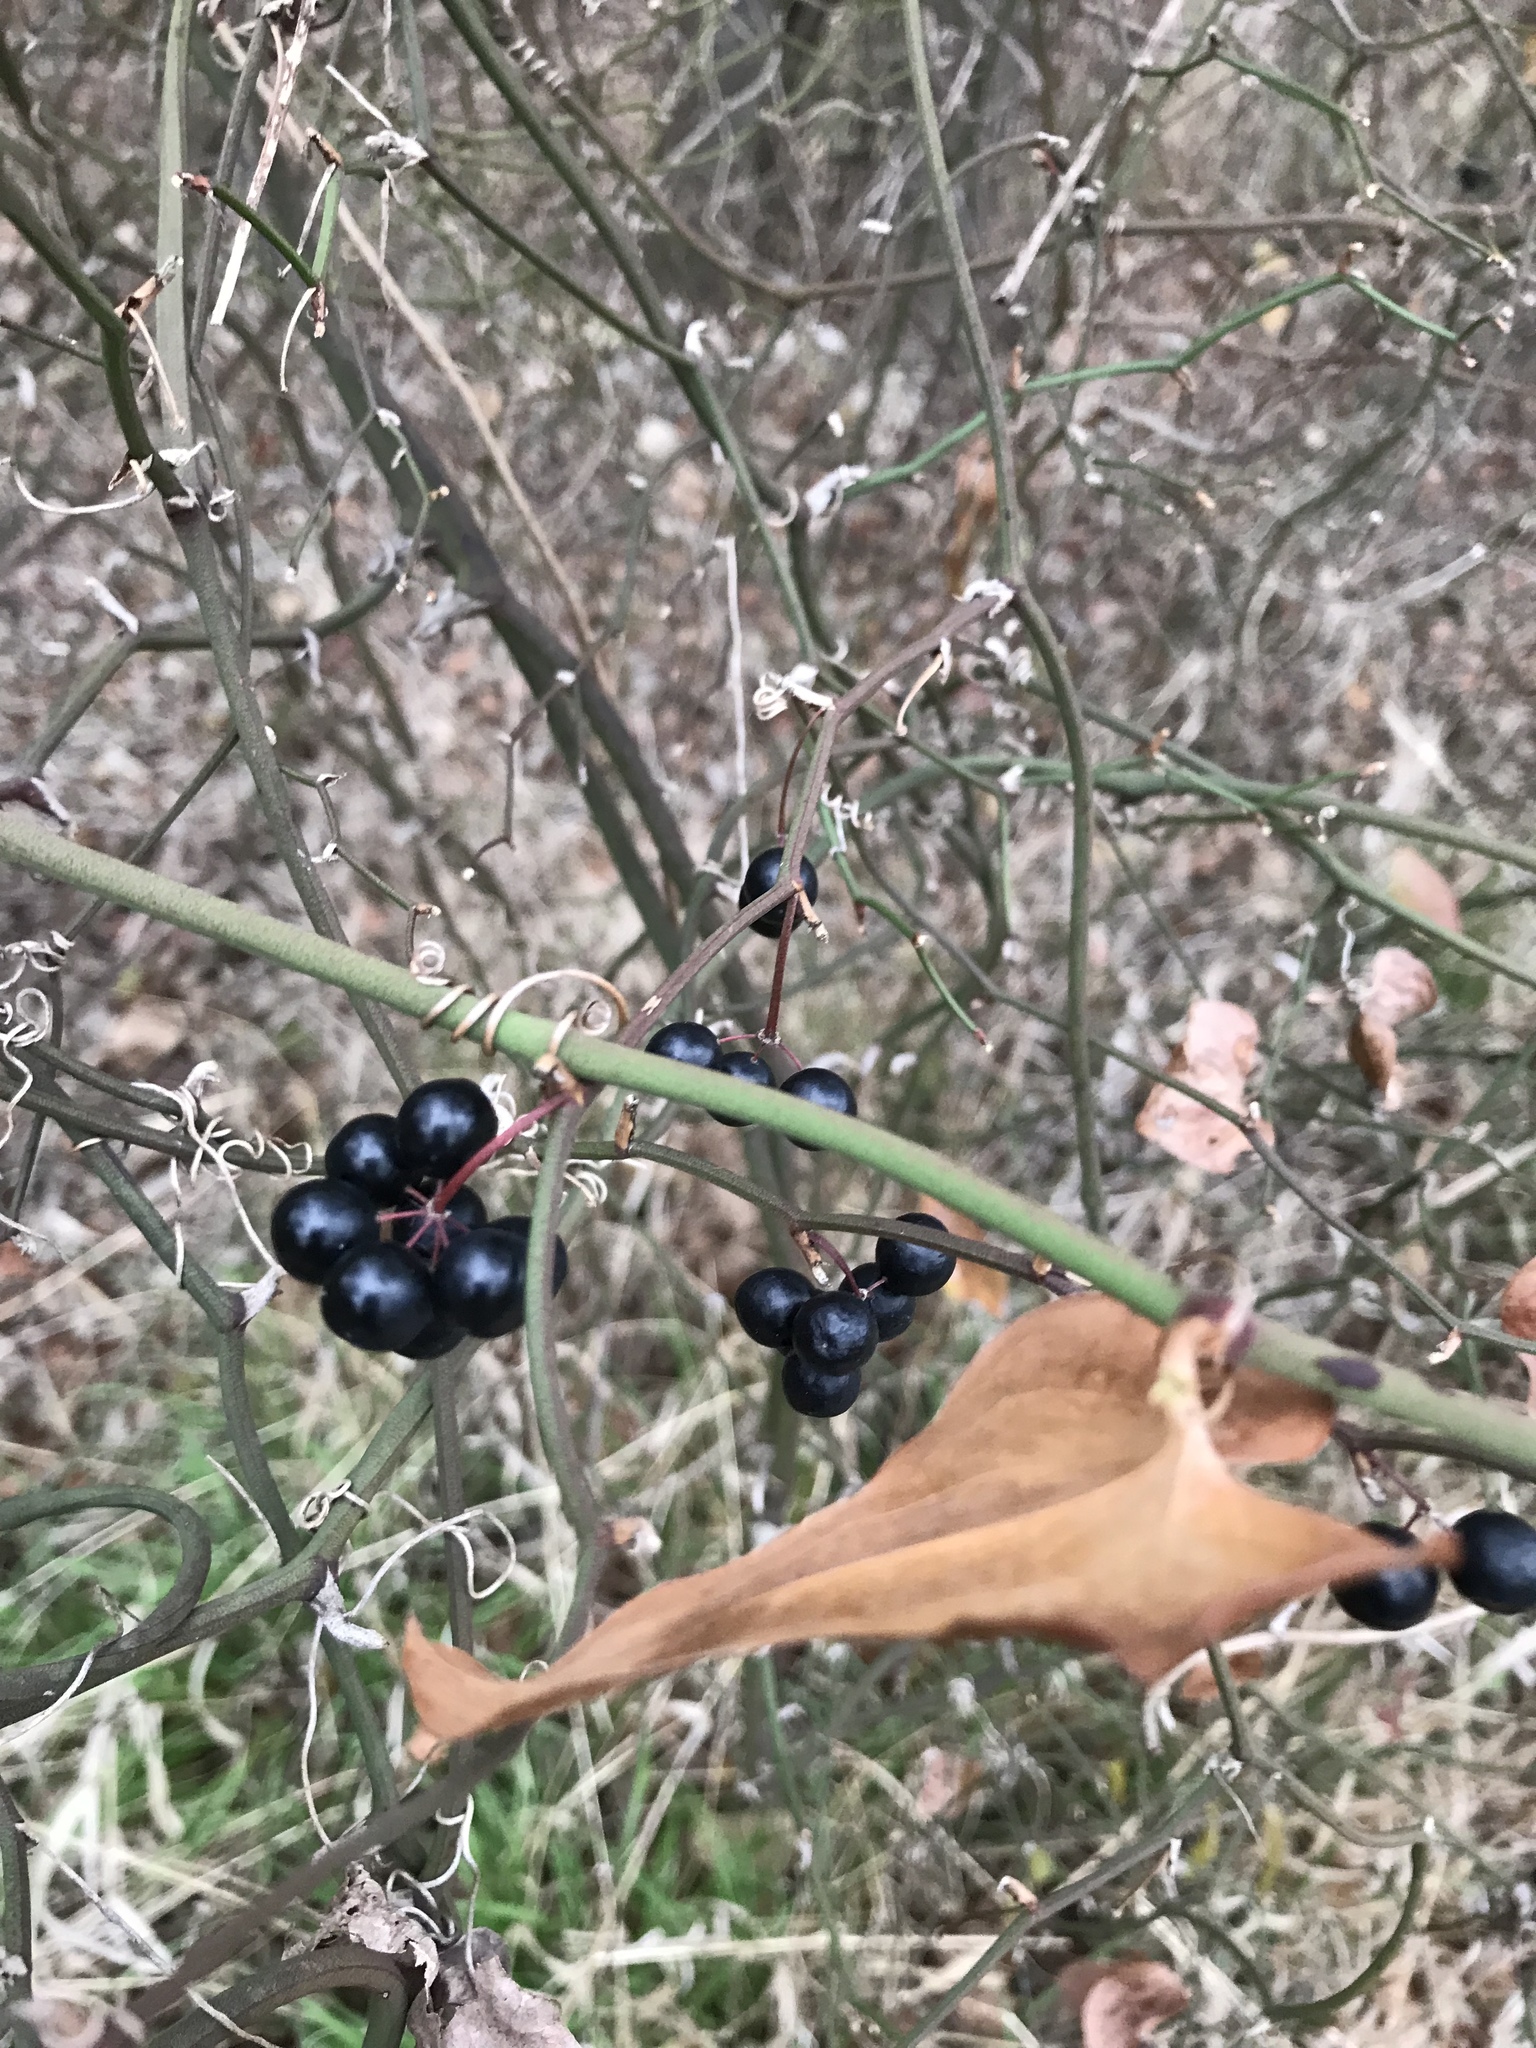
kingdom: Plantae
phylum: Tracheophyta
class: Liliopsida
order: Liliales
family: Smilacaceae
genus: Smilax
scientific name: Smilax bona-nox
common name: Catbrier
